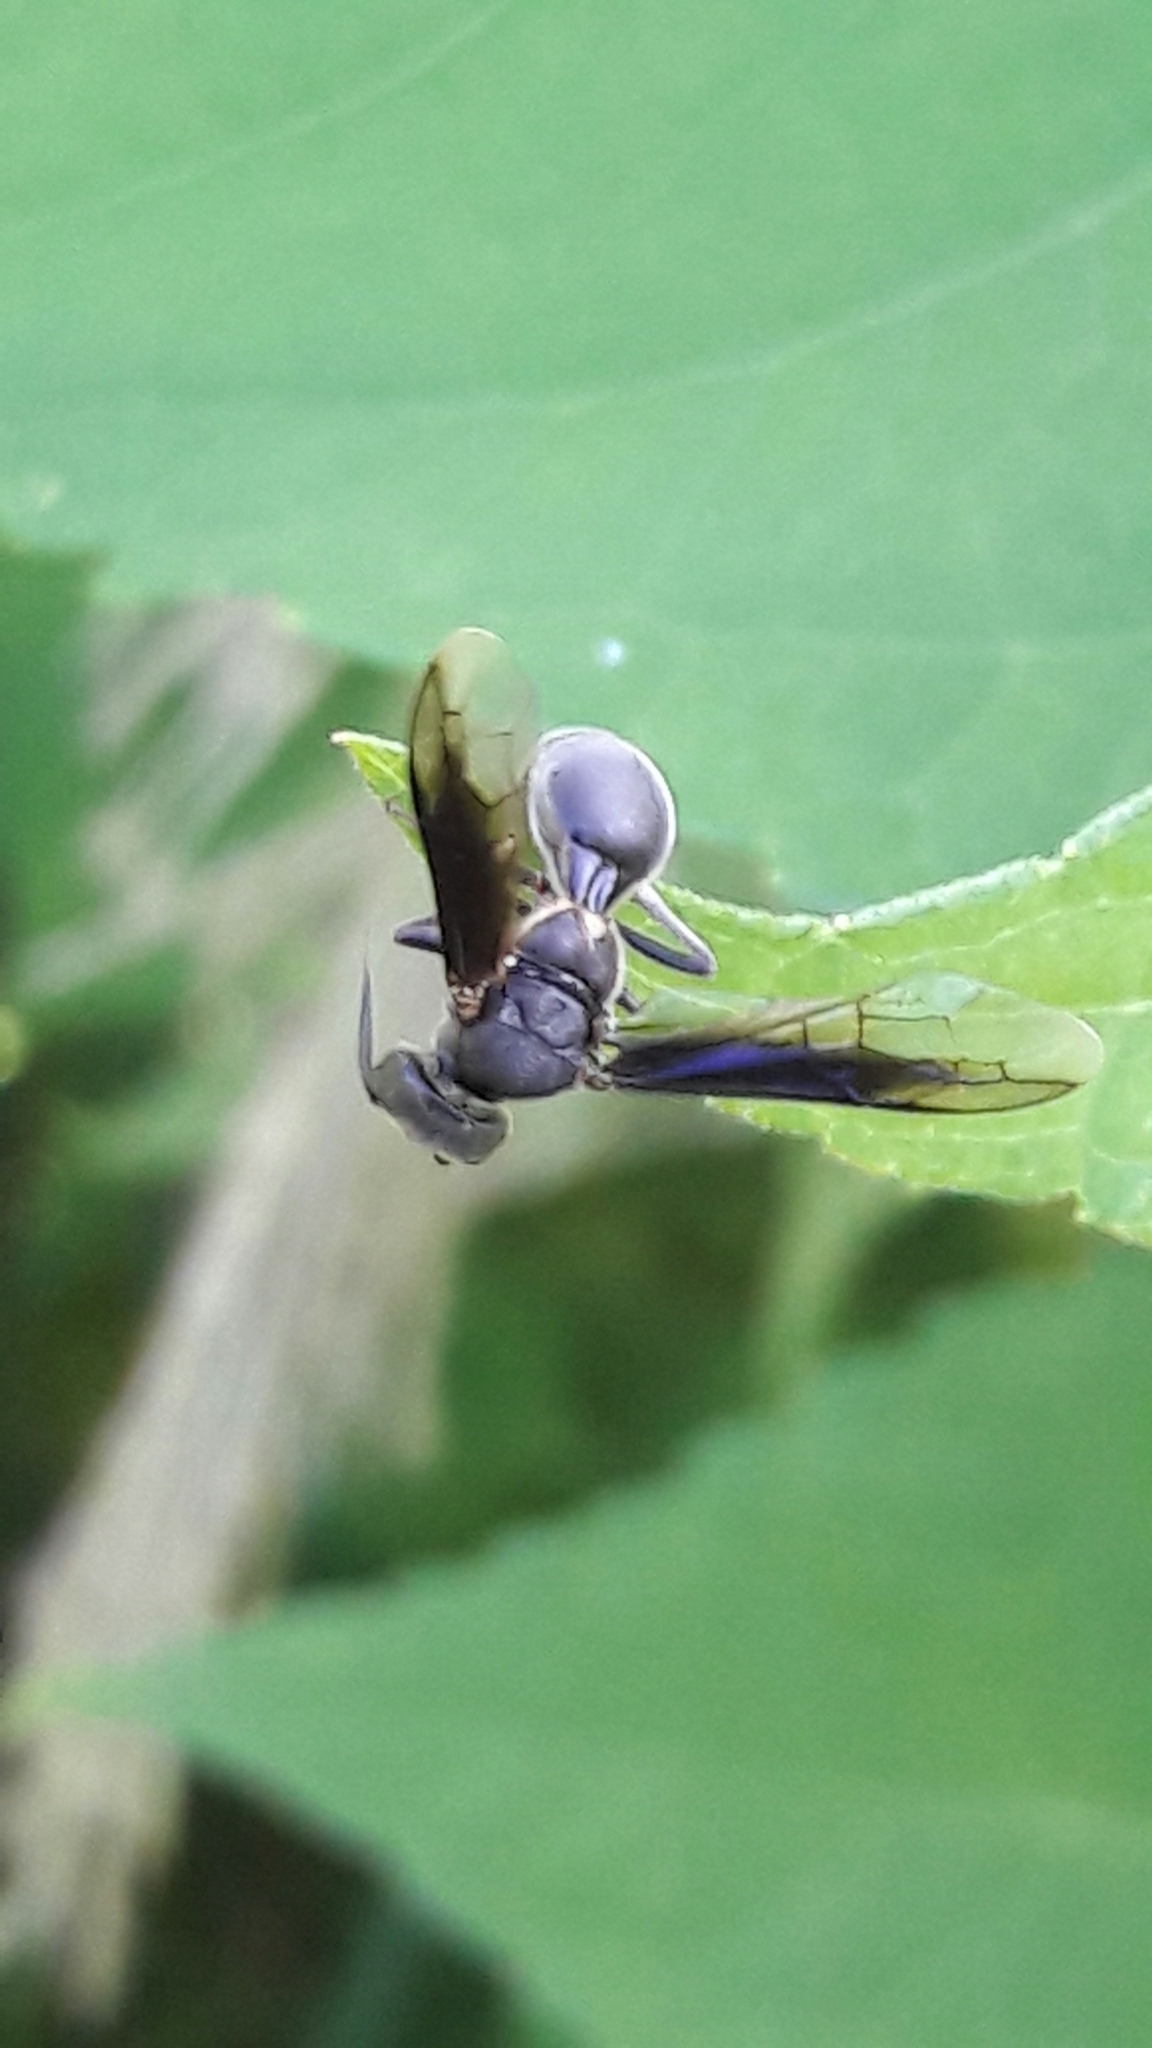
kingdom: Animalia
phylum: Arthropoda
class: Insecta
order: Hymenoptera
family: Trigonalidae
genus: Seminota
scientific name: Seminota
